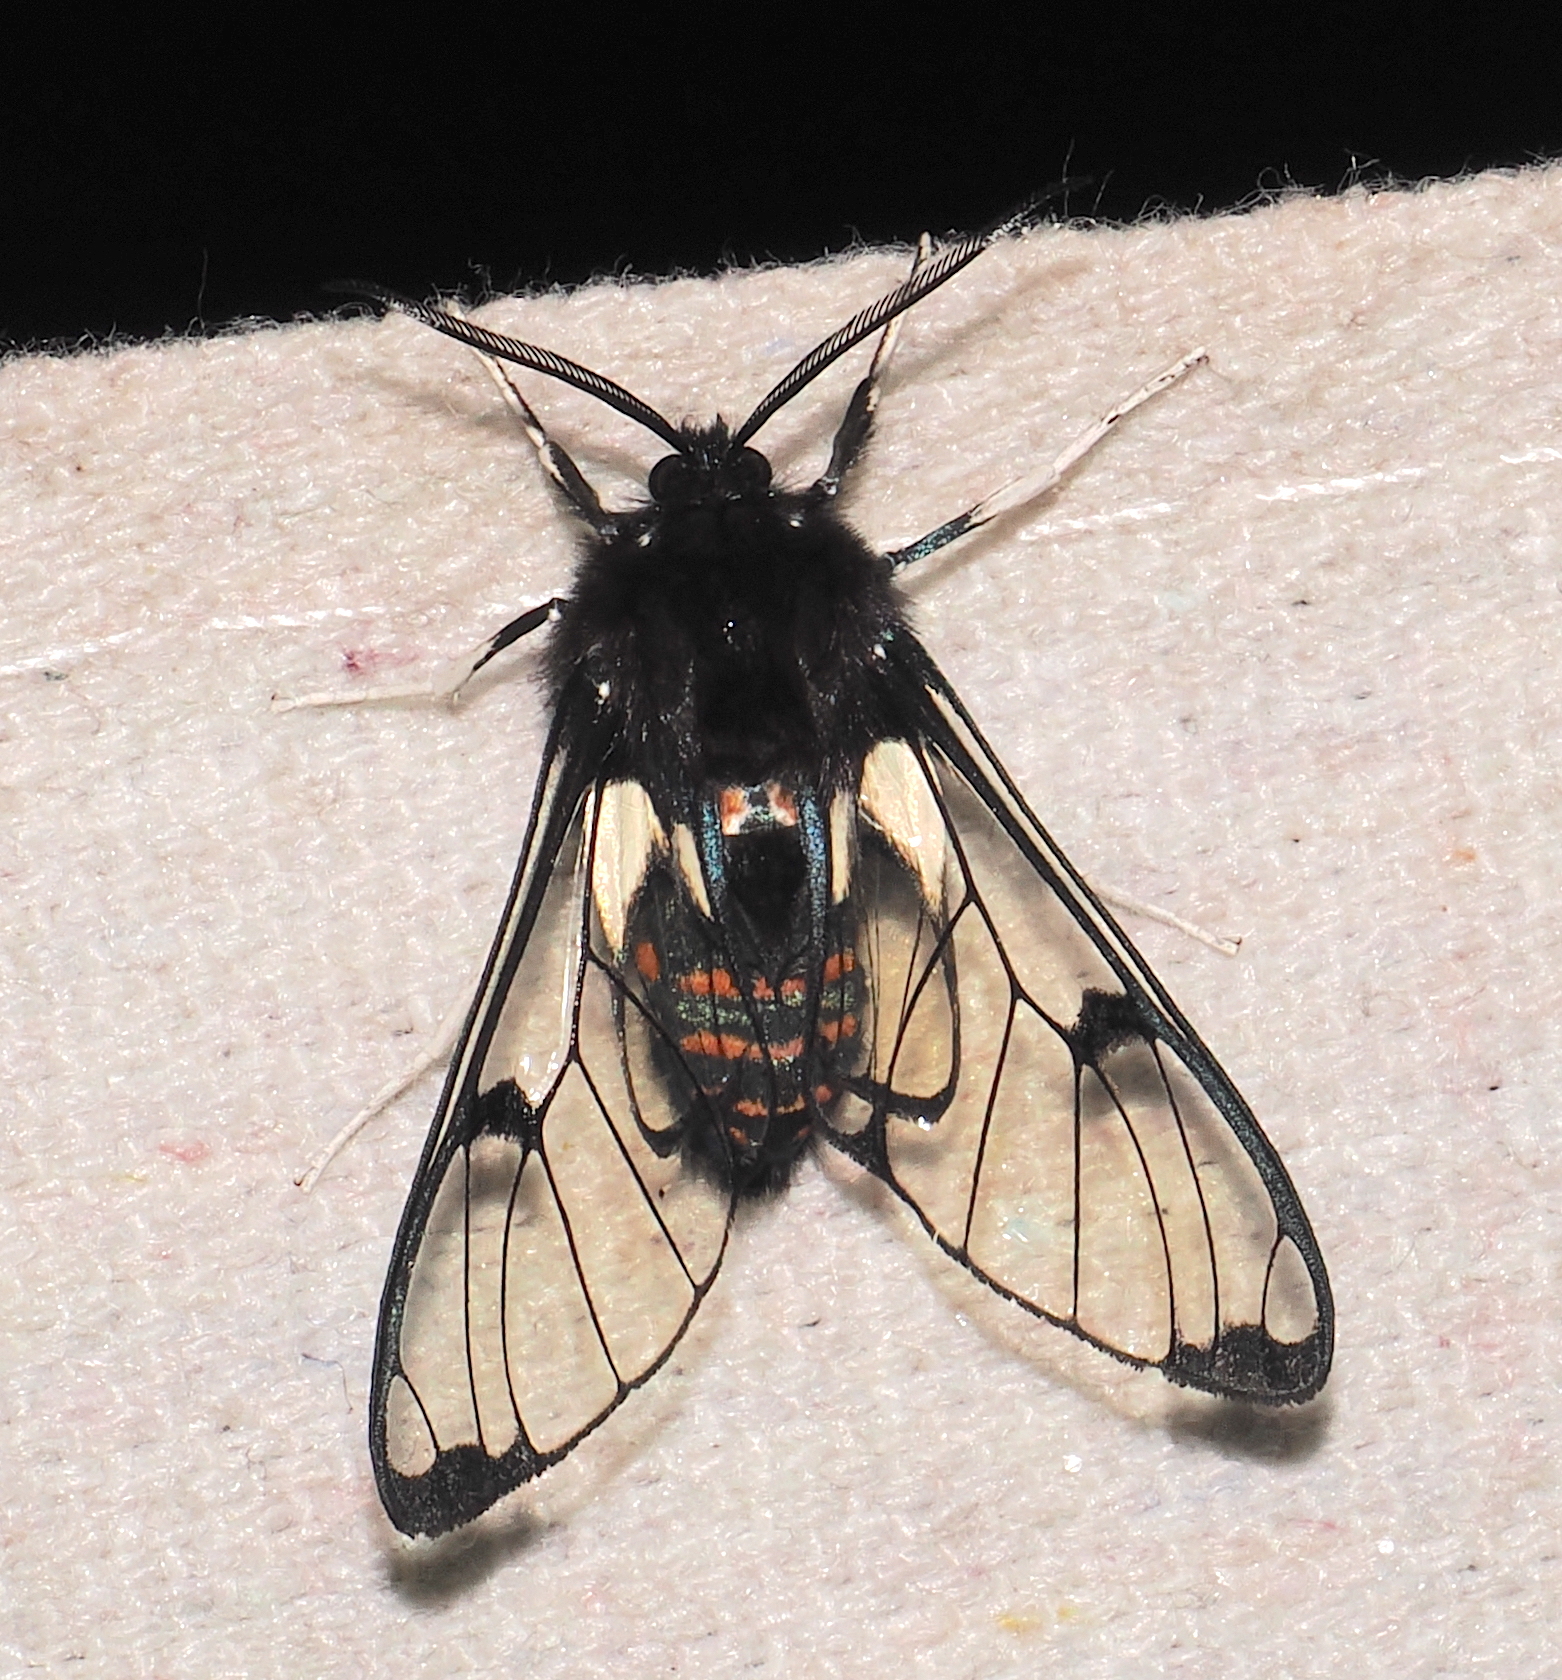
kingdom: Animalia
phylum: Arthropoda
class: Insecta
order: Lepidoptera
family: Erebidae
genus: Dasysphinx
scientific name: Dasysphinx buckleyi
